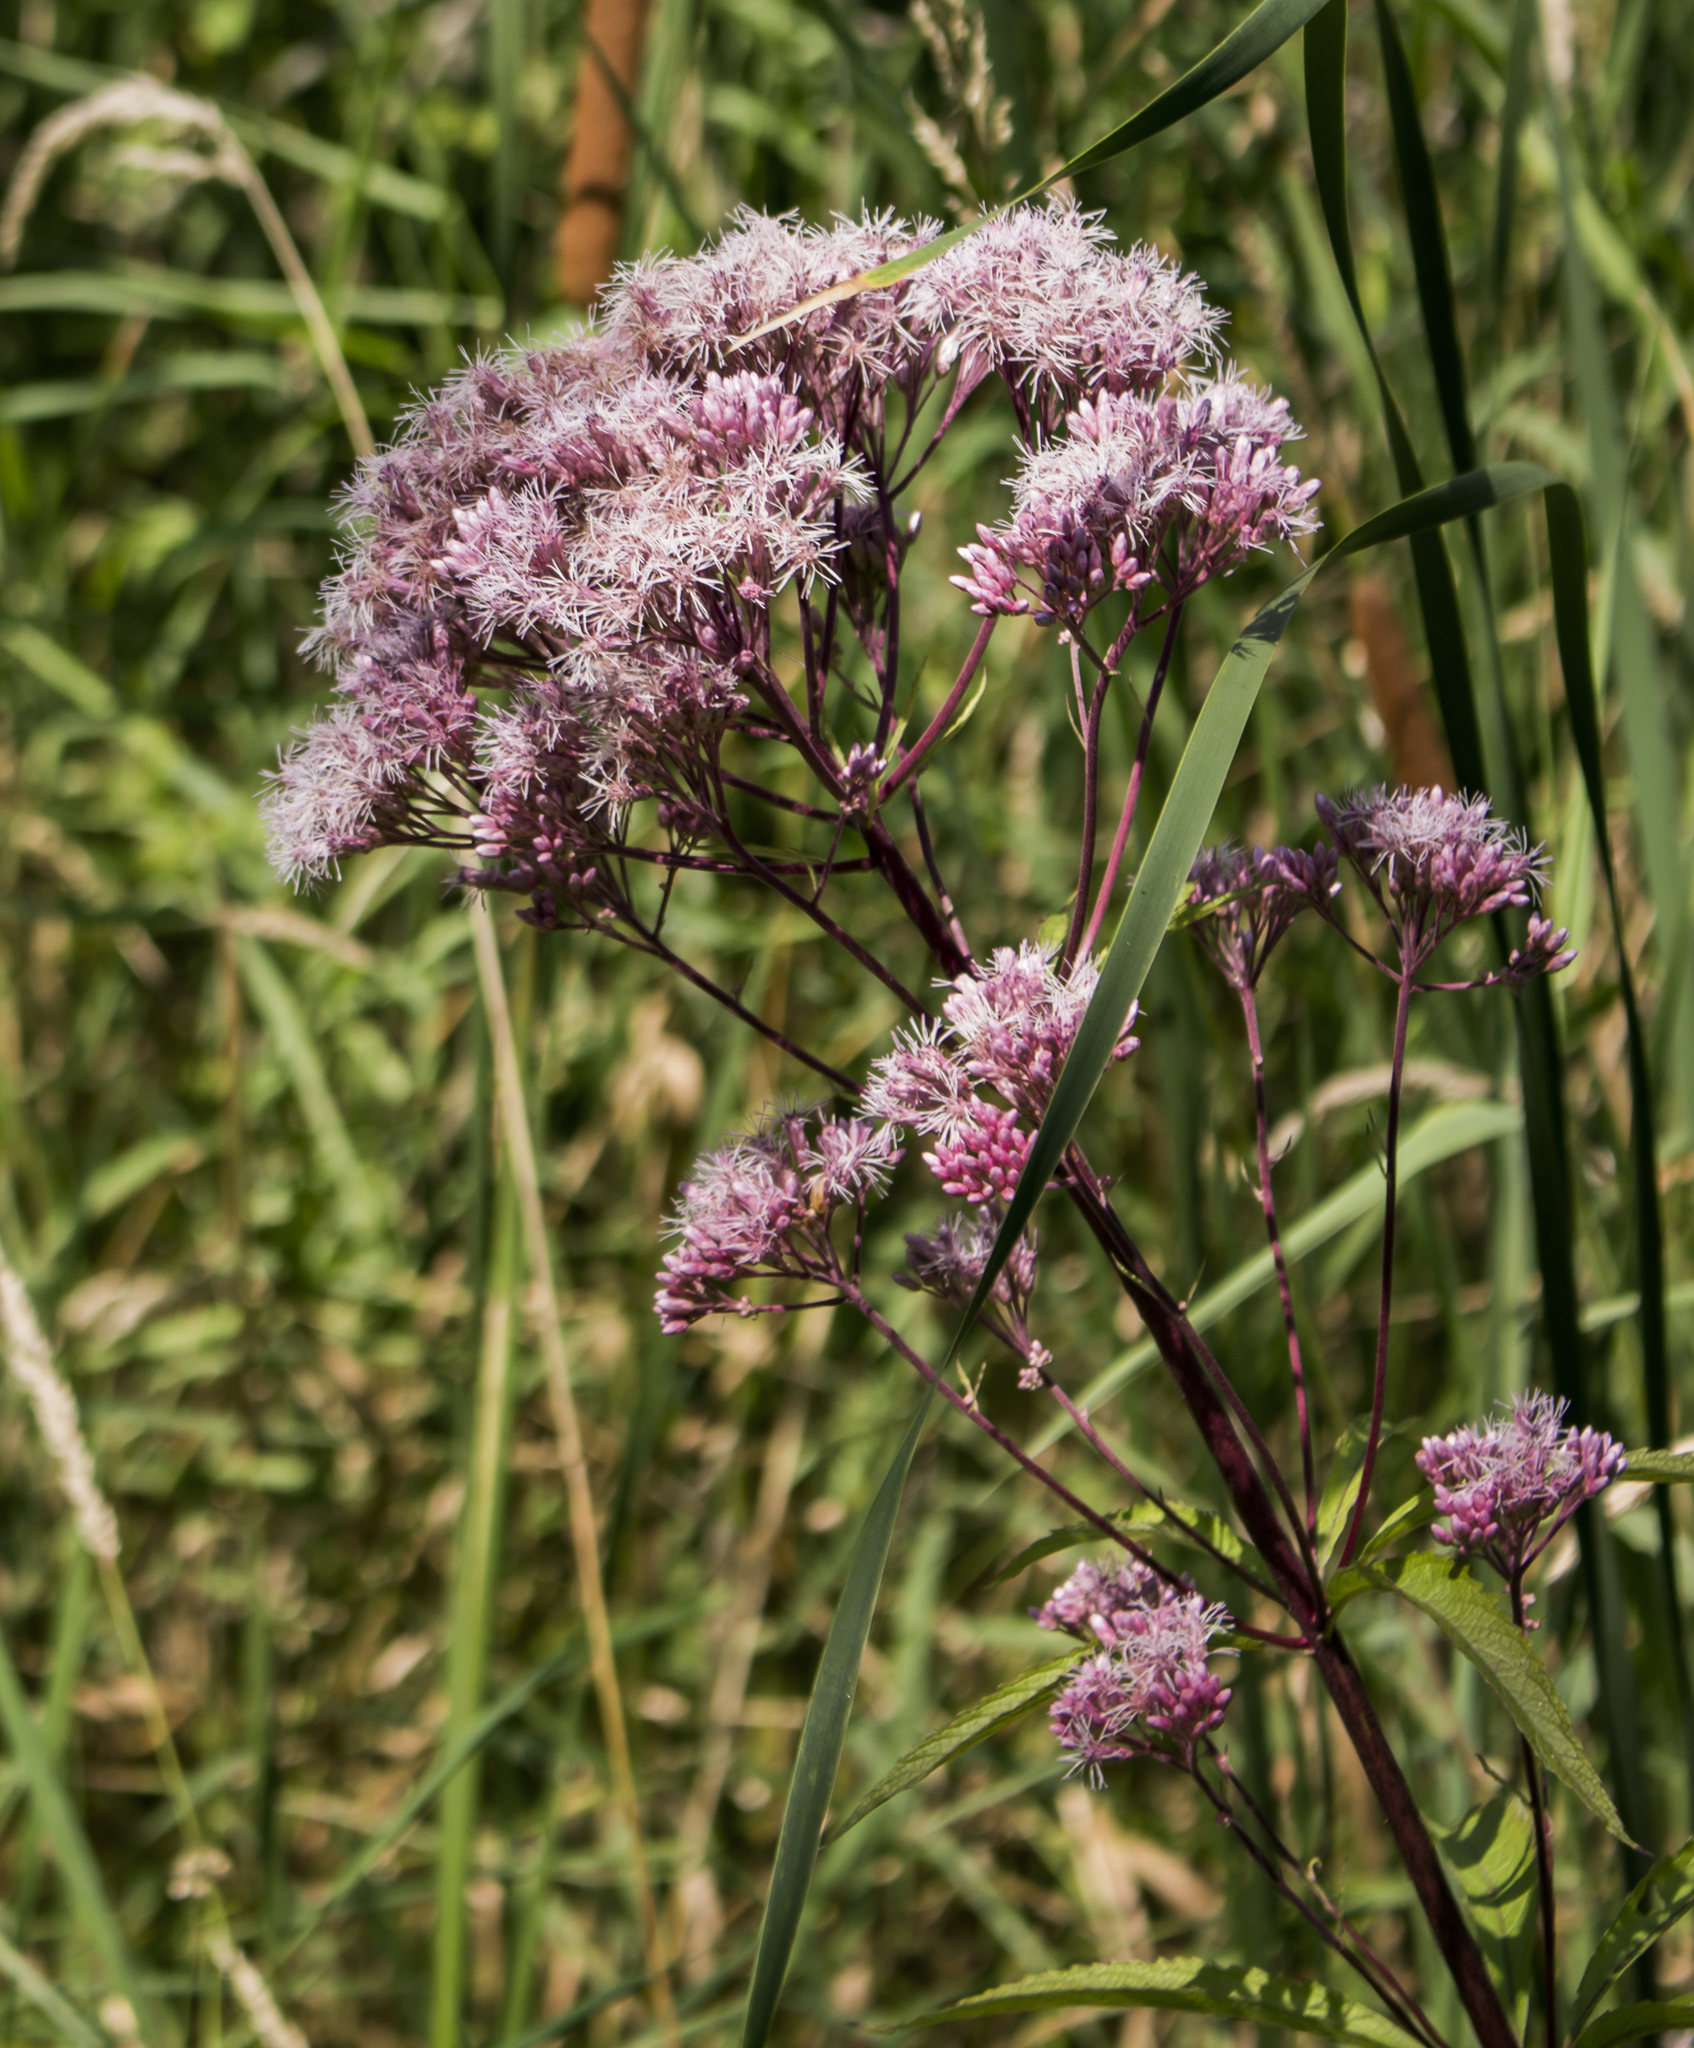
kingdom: Plantae
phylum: Tracheophyta
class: Magnoliopsida
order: Asterales
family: Asteraceae
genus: Eutrochium
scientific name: Eutrochium maculatum
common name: Spotted joe pye weed
